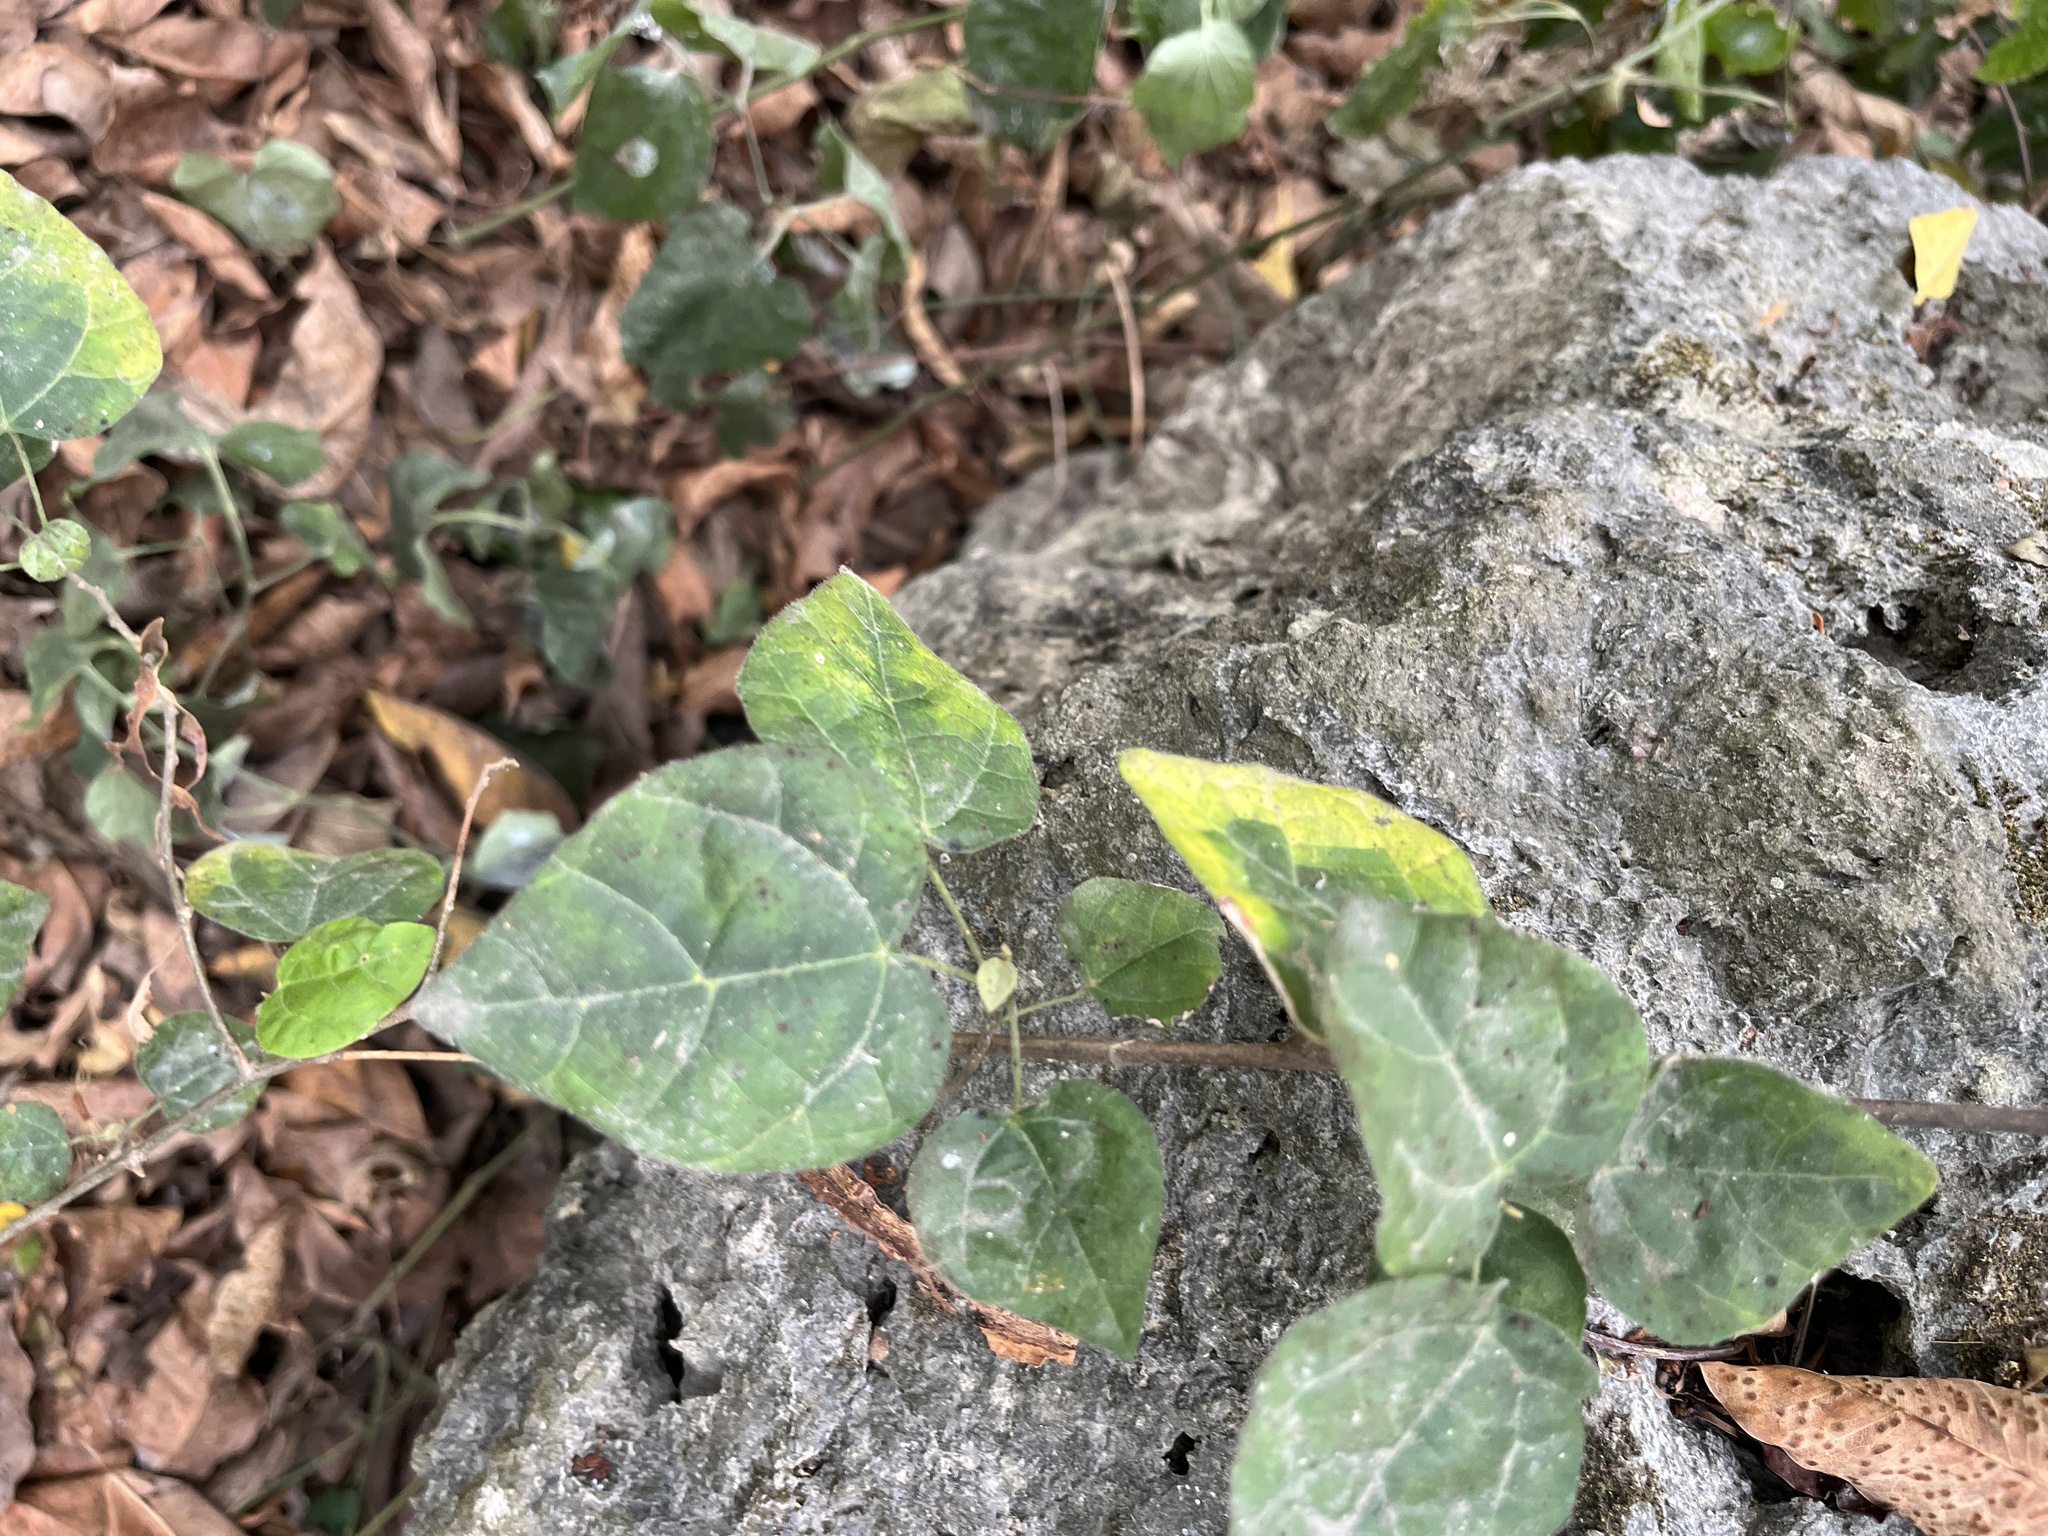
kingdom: Plantae
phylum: Tracheophyta
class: Magnoliopsida
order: Malpighiales
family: Euphorbiaceae
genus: Mallotus
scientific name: Mallotus repandus
